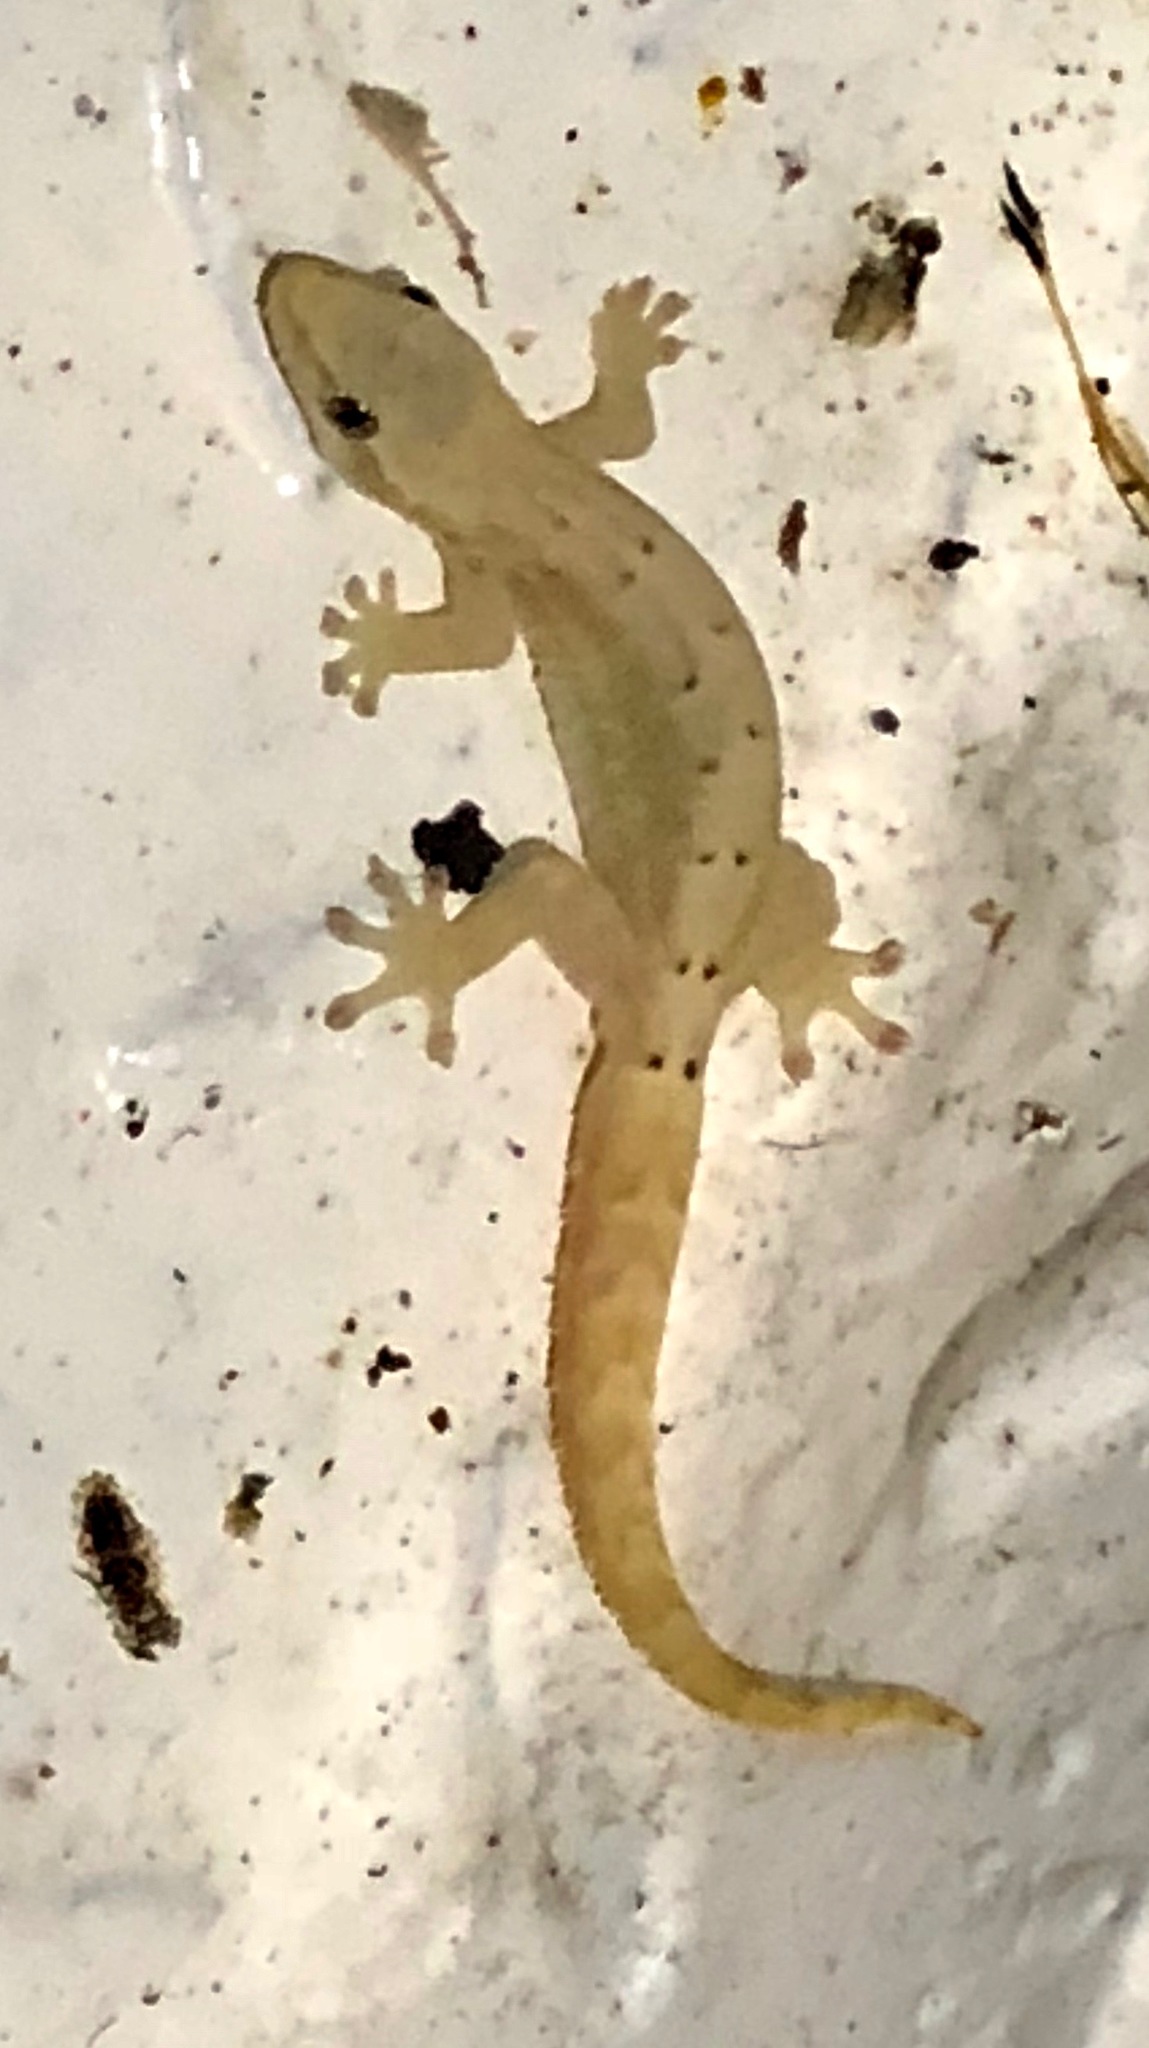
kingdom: Animalia
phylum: Chordata
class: Squamata
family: Gekkonidae
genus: Lepidodactylus
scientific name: Lepidodactylus lugubris
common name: Mourning gecko
